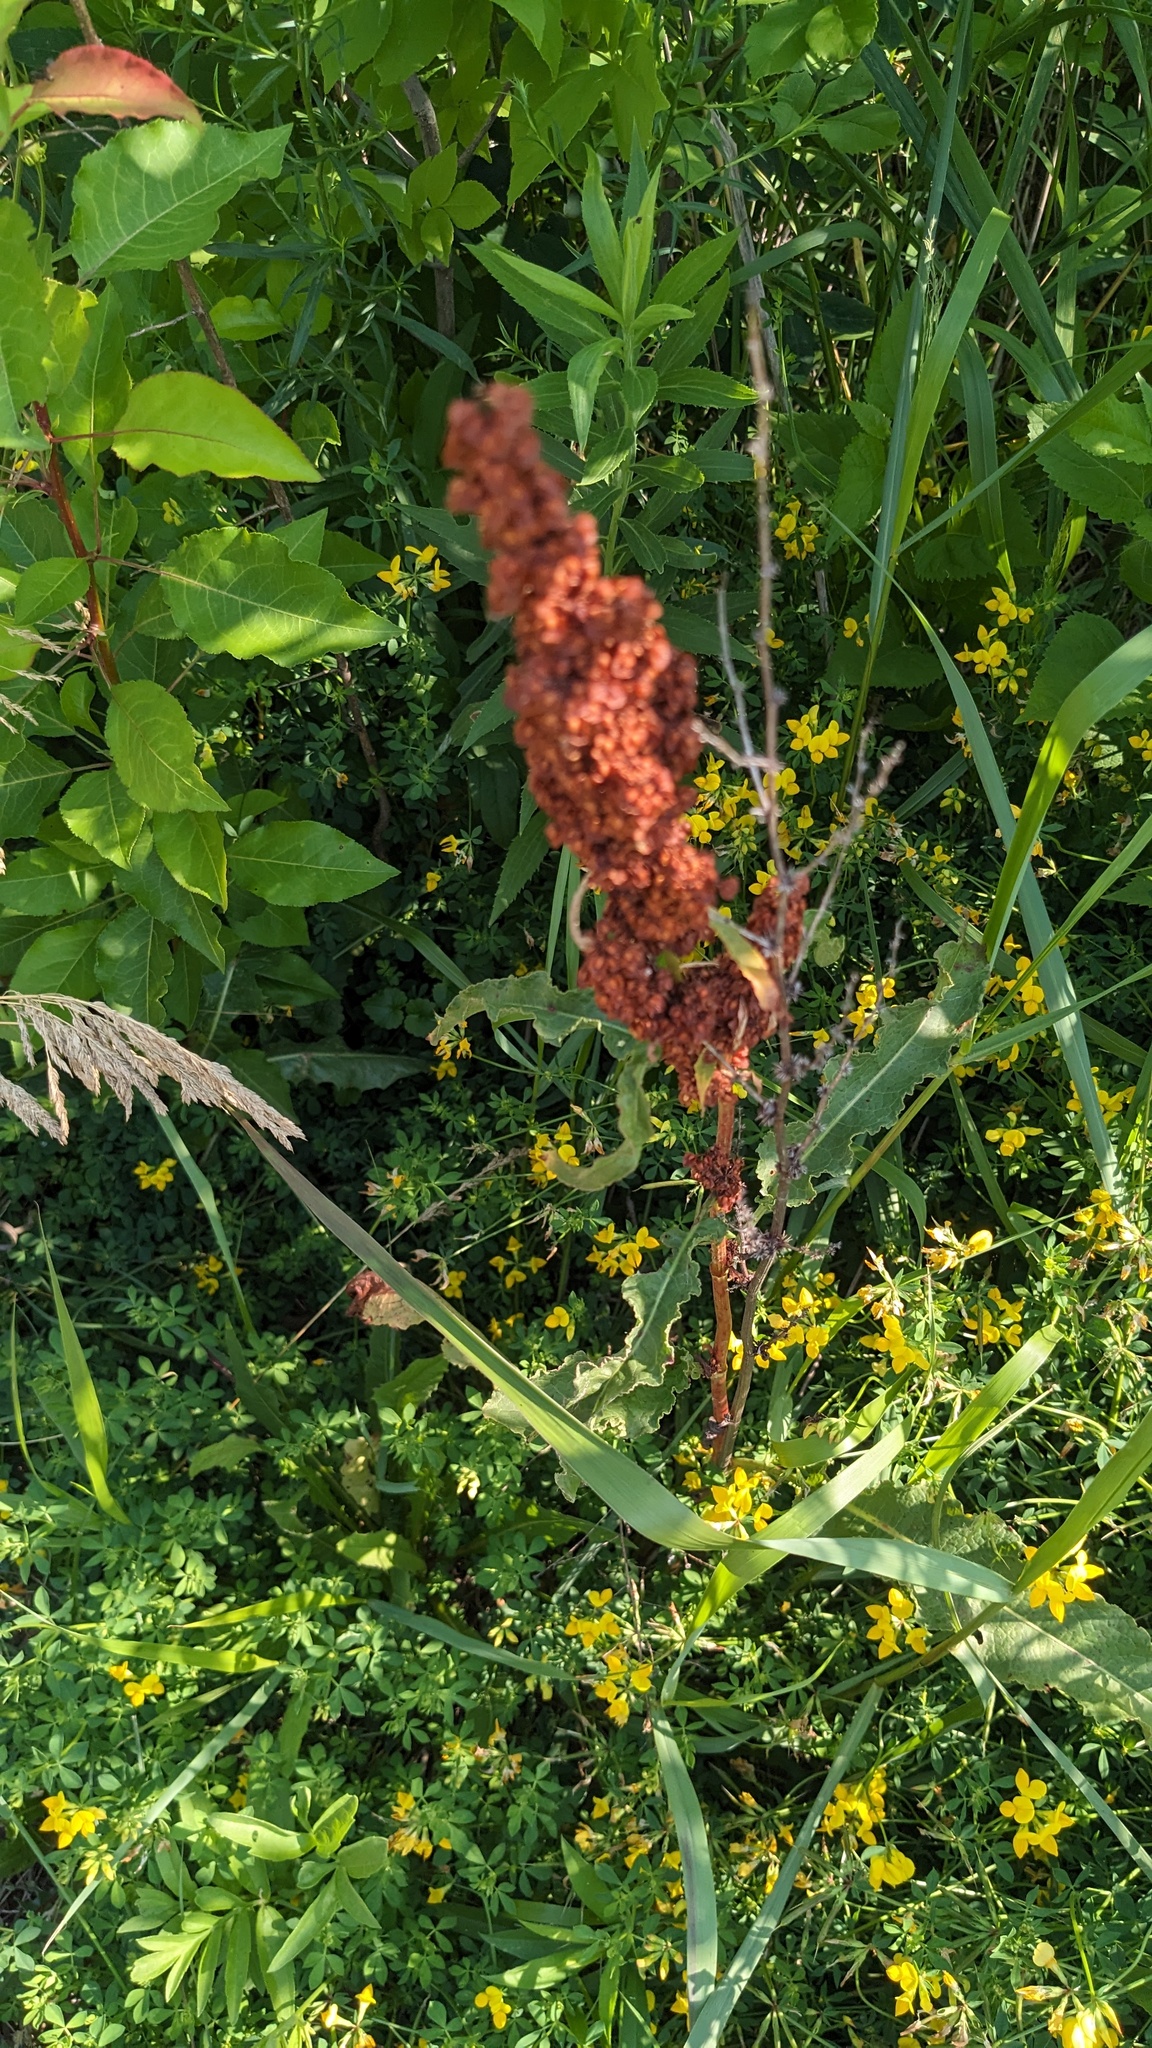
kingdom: Plantae
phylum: Tracheophyta
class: Magnoliopsida
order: Caryophyllales
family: Polygonaceae
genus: Rumex
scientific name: Rumex crispus
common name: Curled dock
